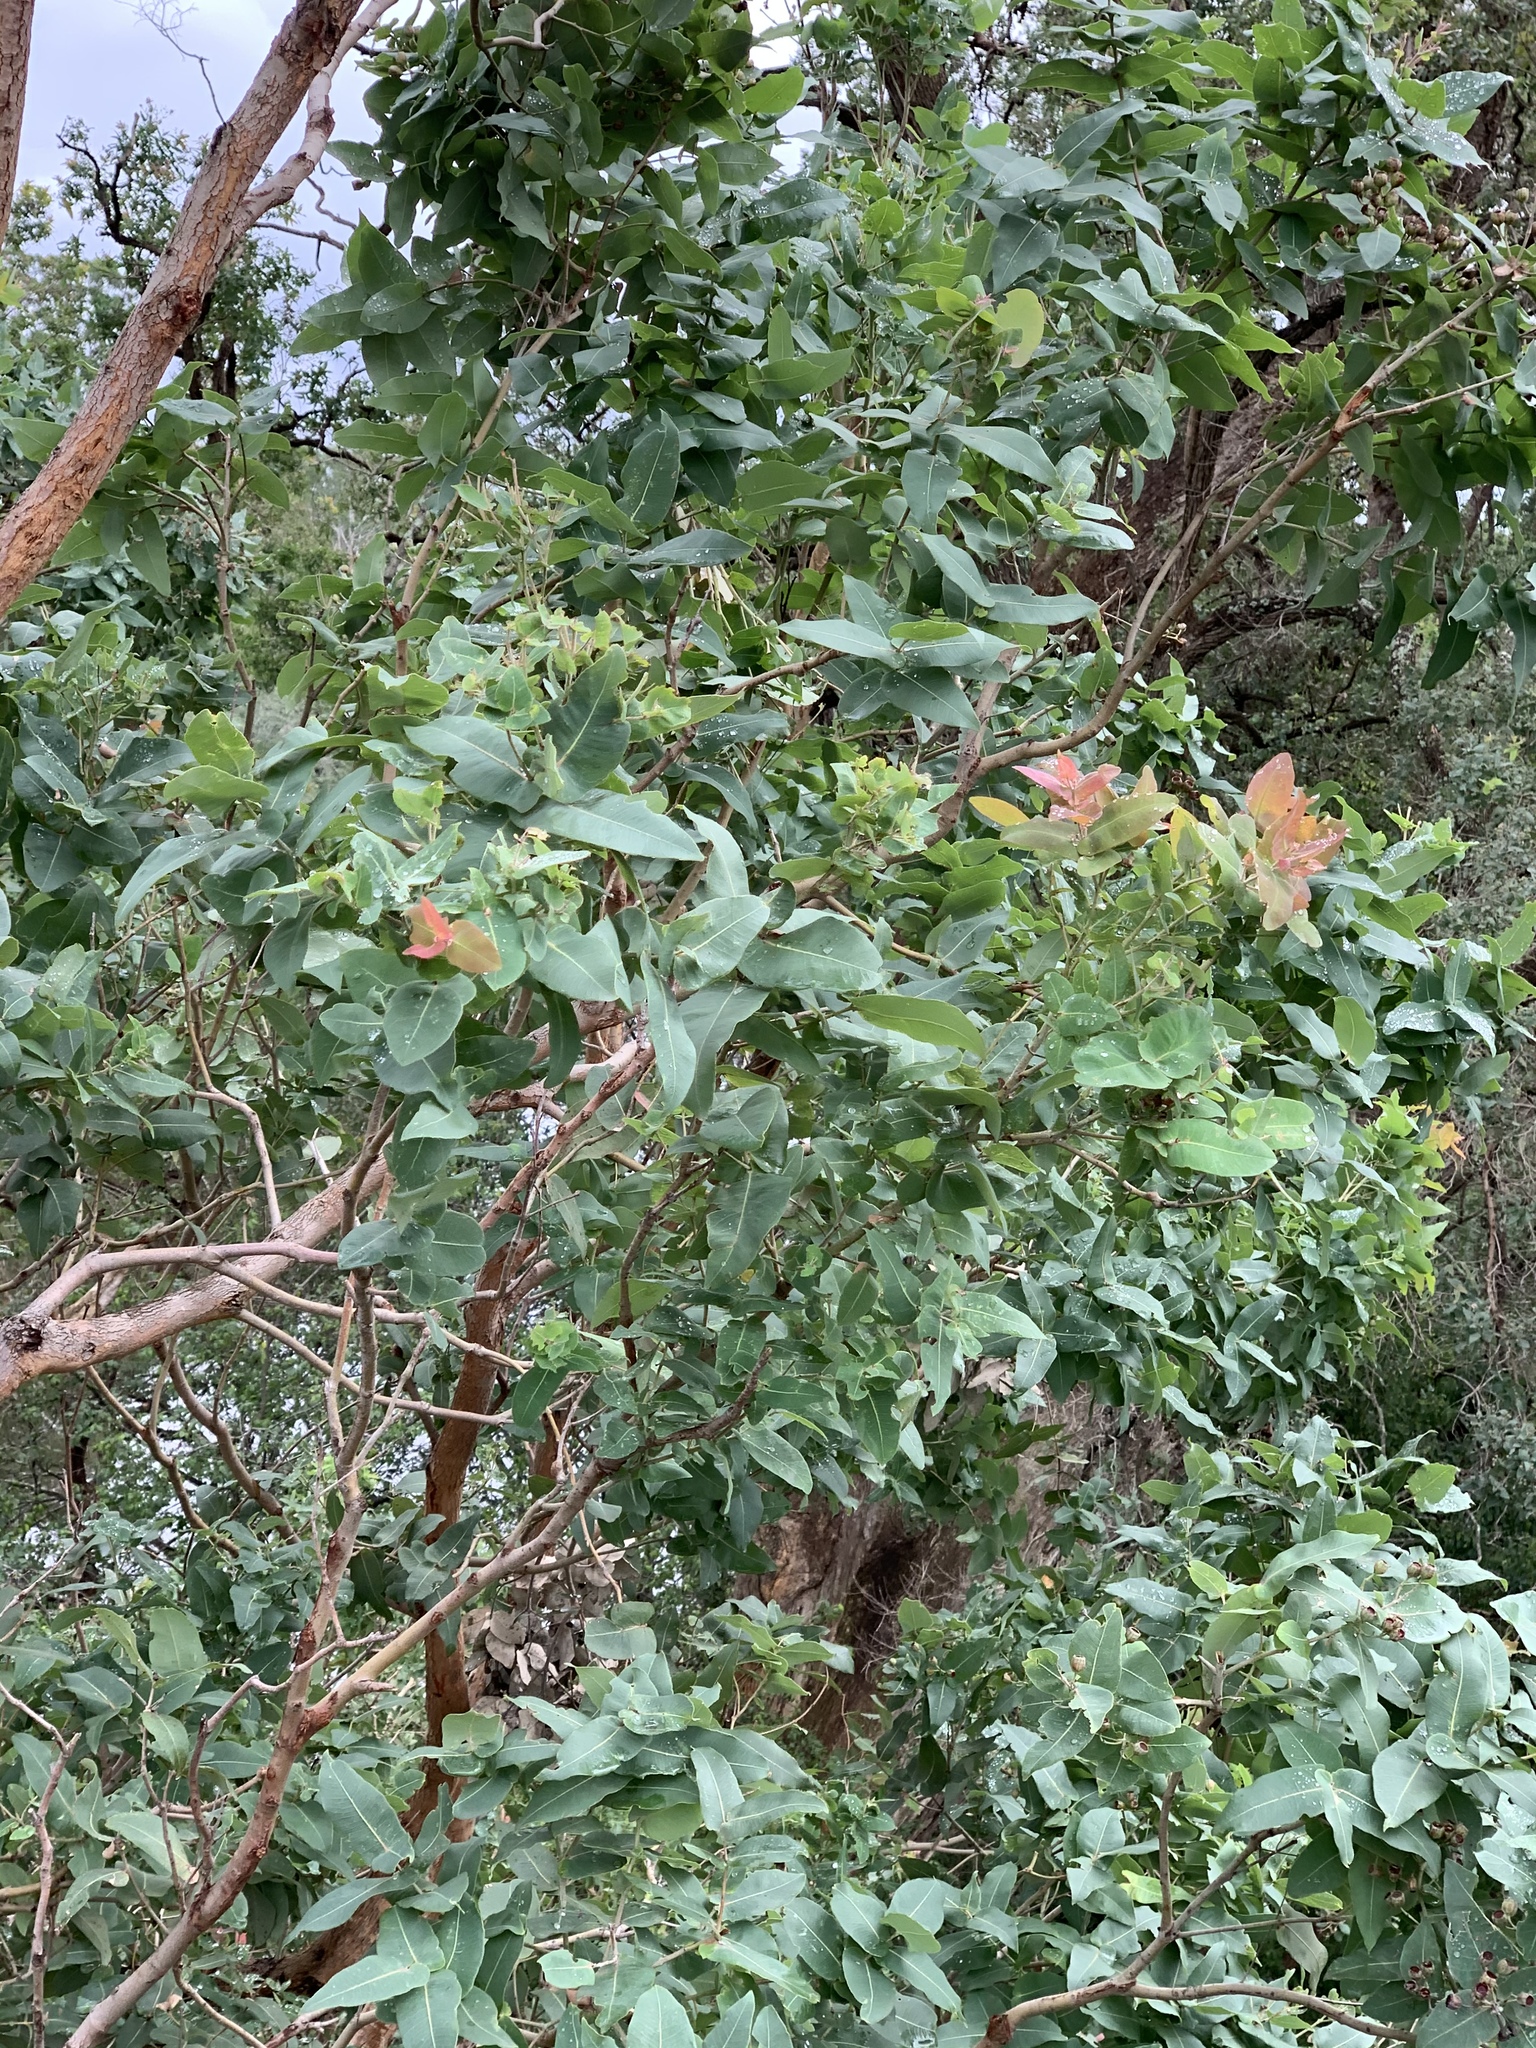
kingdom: Plantae
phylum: Tracheophyta
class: Magnoliopsida
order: Myrtales
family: Myrtaceae
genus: Angophora
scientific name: Angophora subvelutina
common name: Broad-leaved apple
